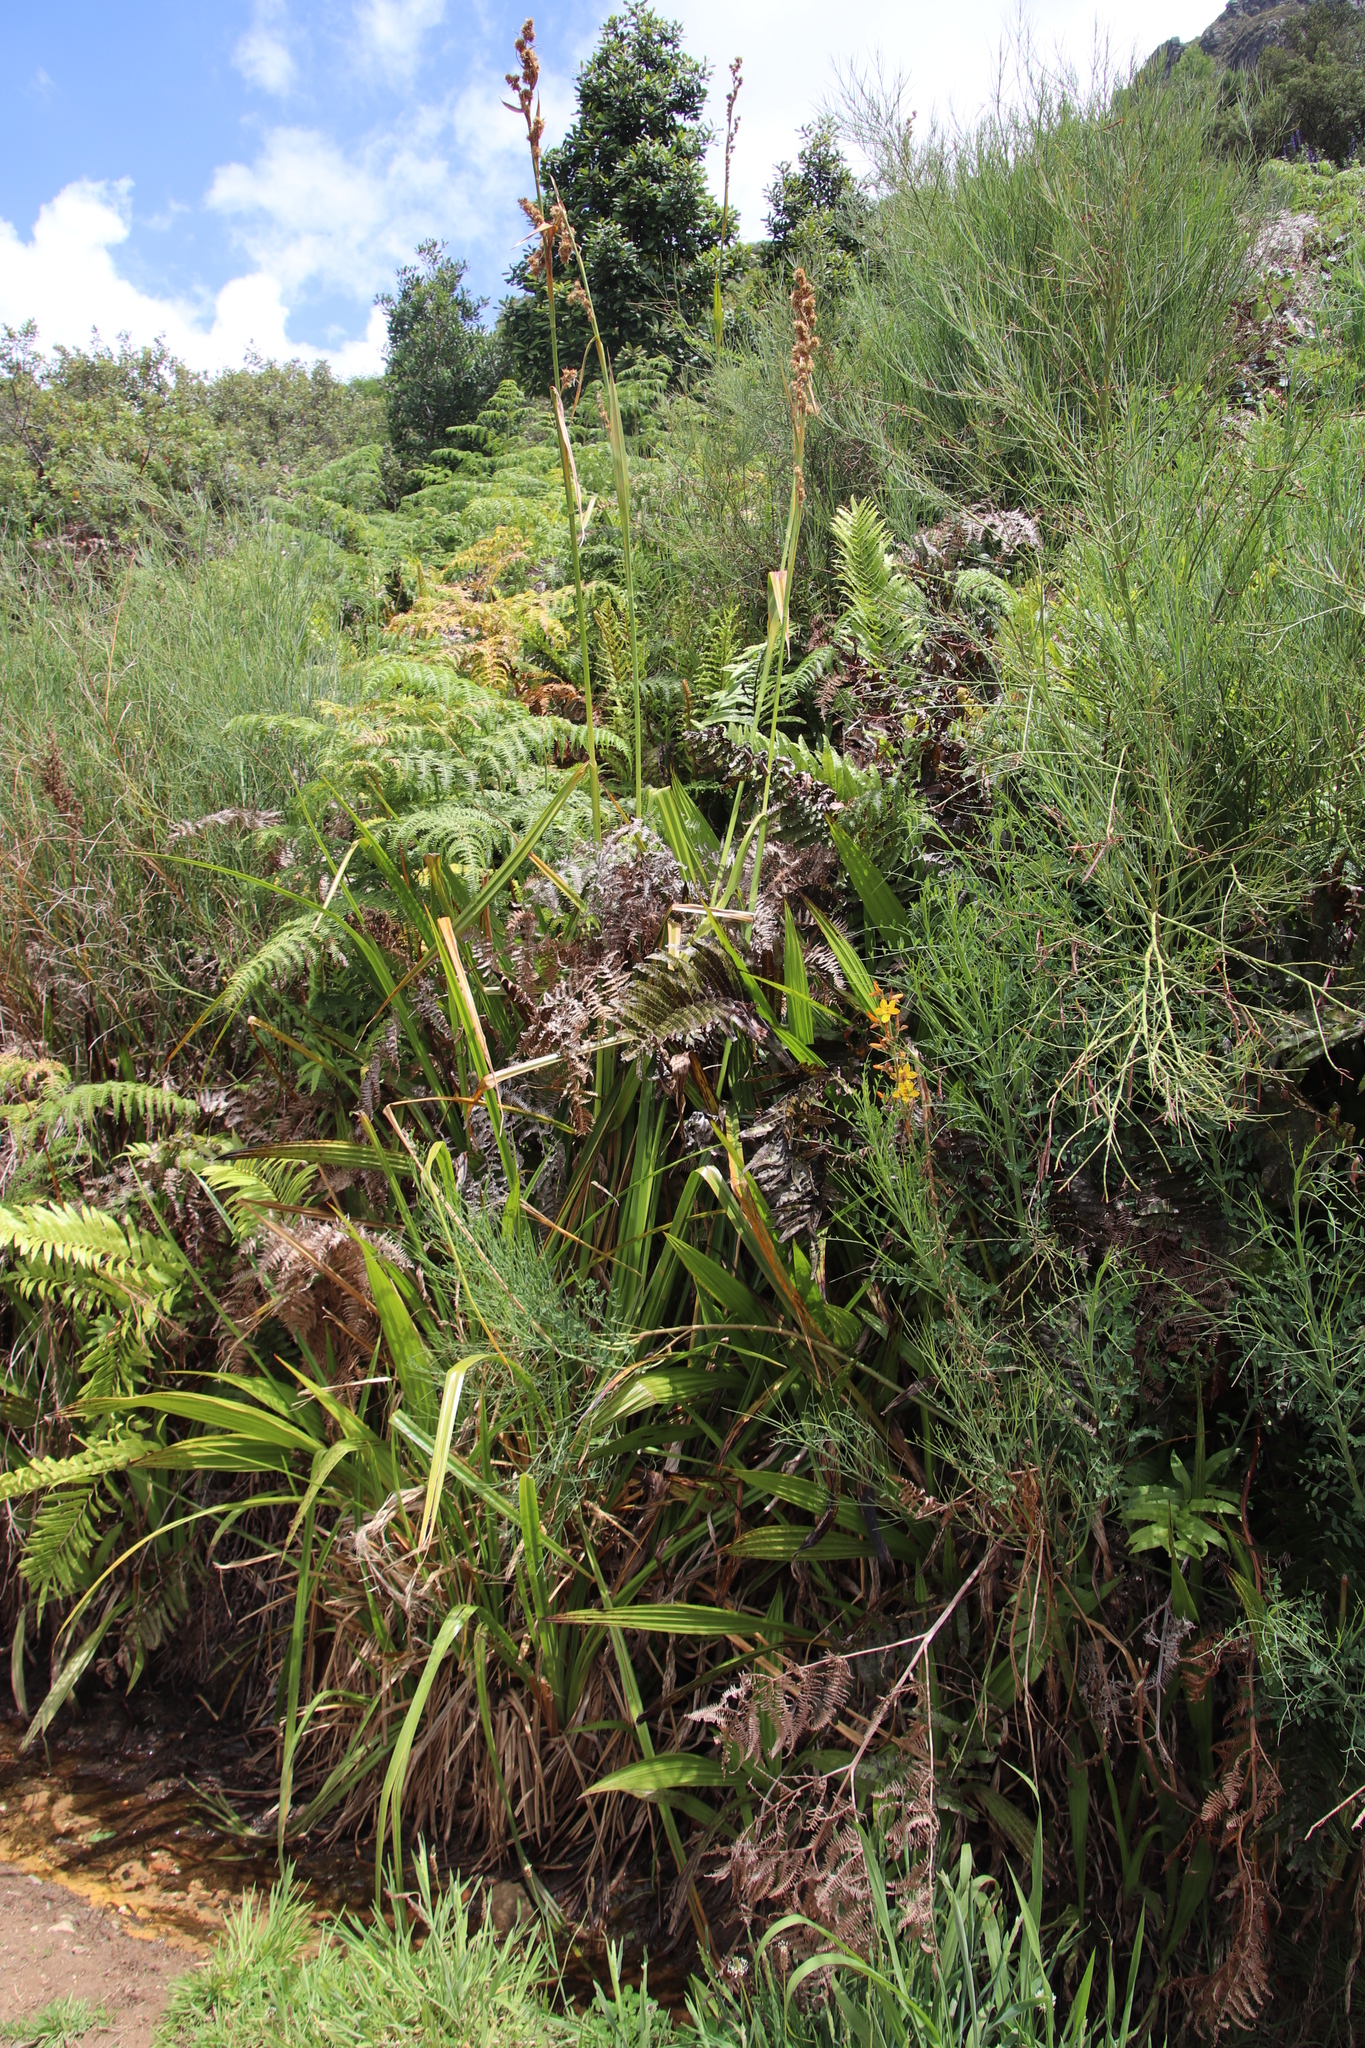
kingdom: Plantae
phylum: Tracheophyta
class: Liliopsida
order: Poales
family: Cyperaceae
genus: Carpha
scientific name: Carpha glomerata
